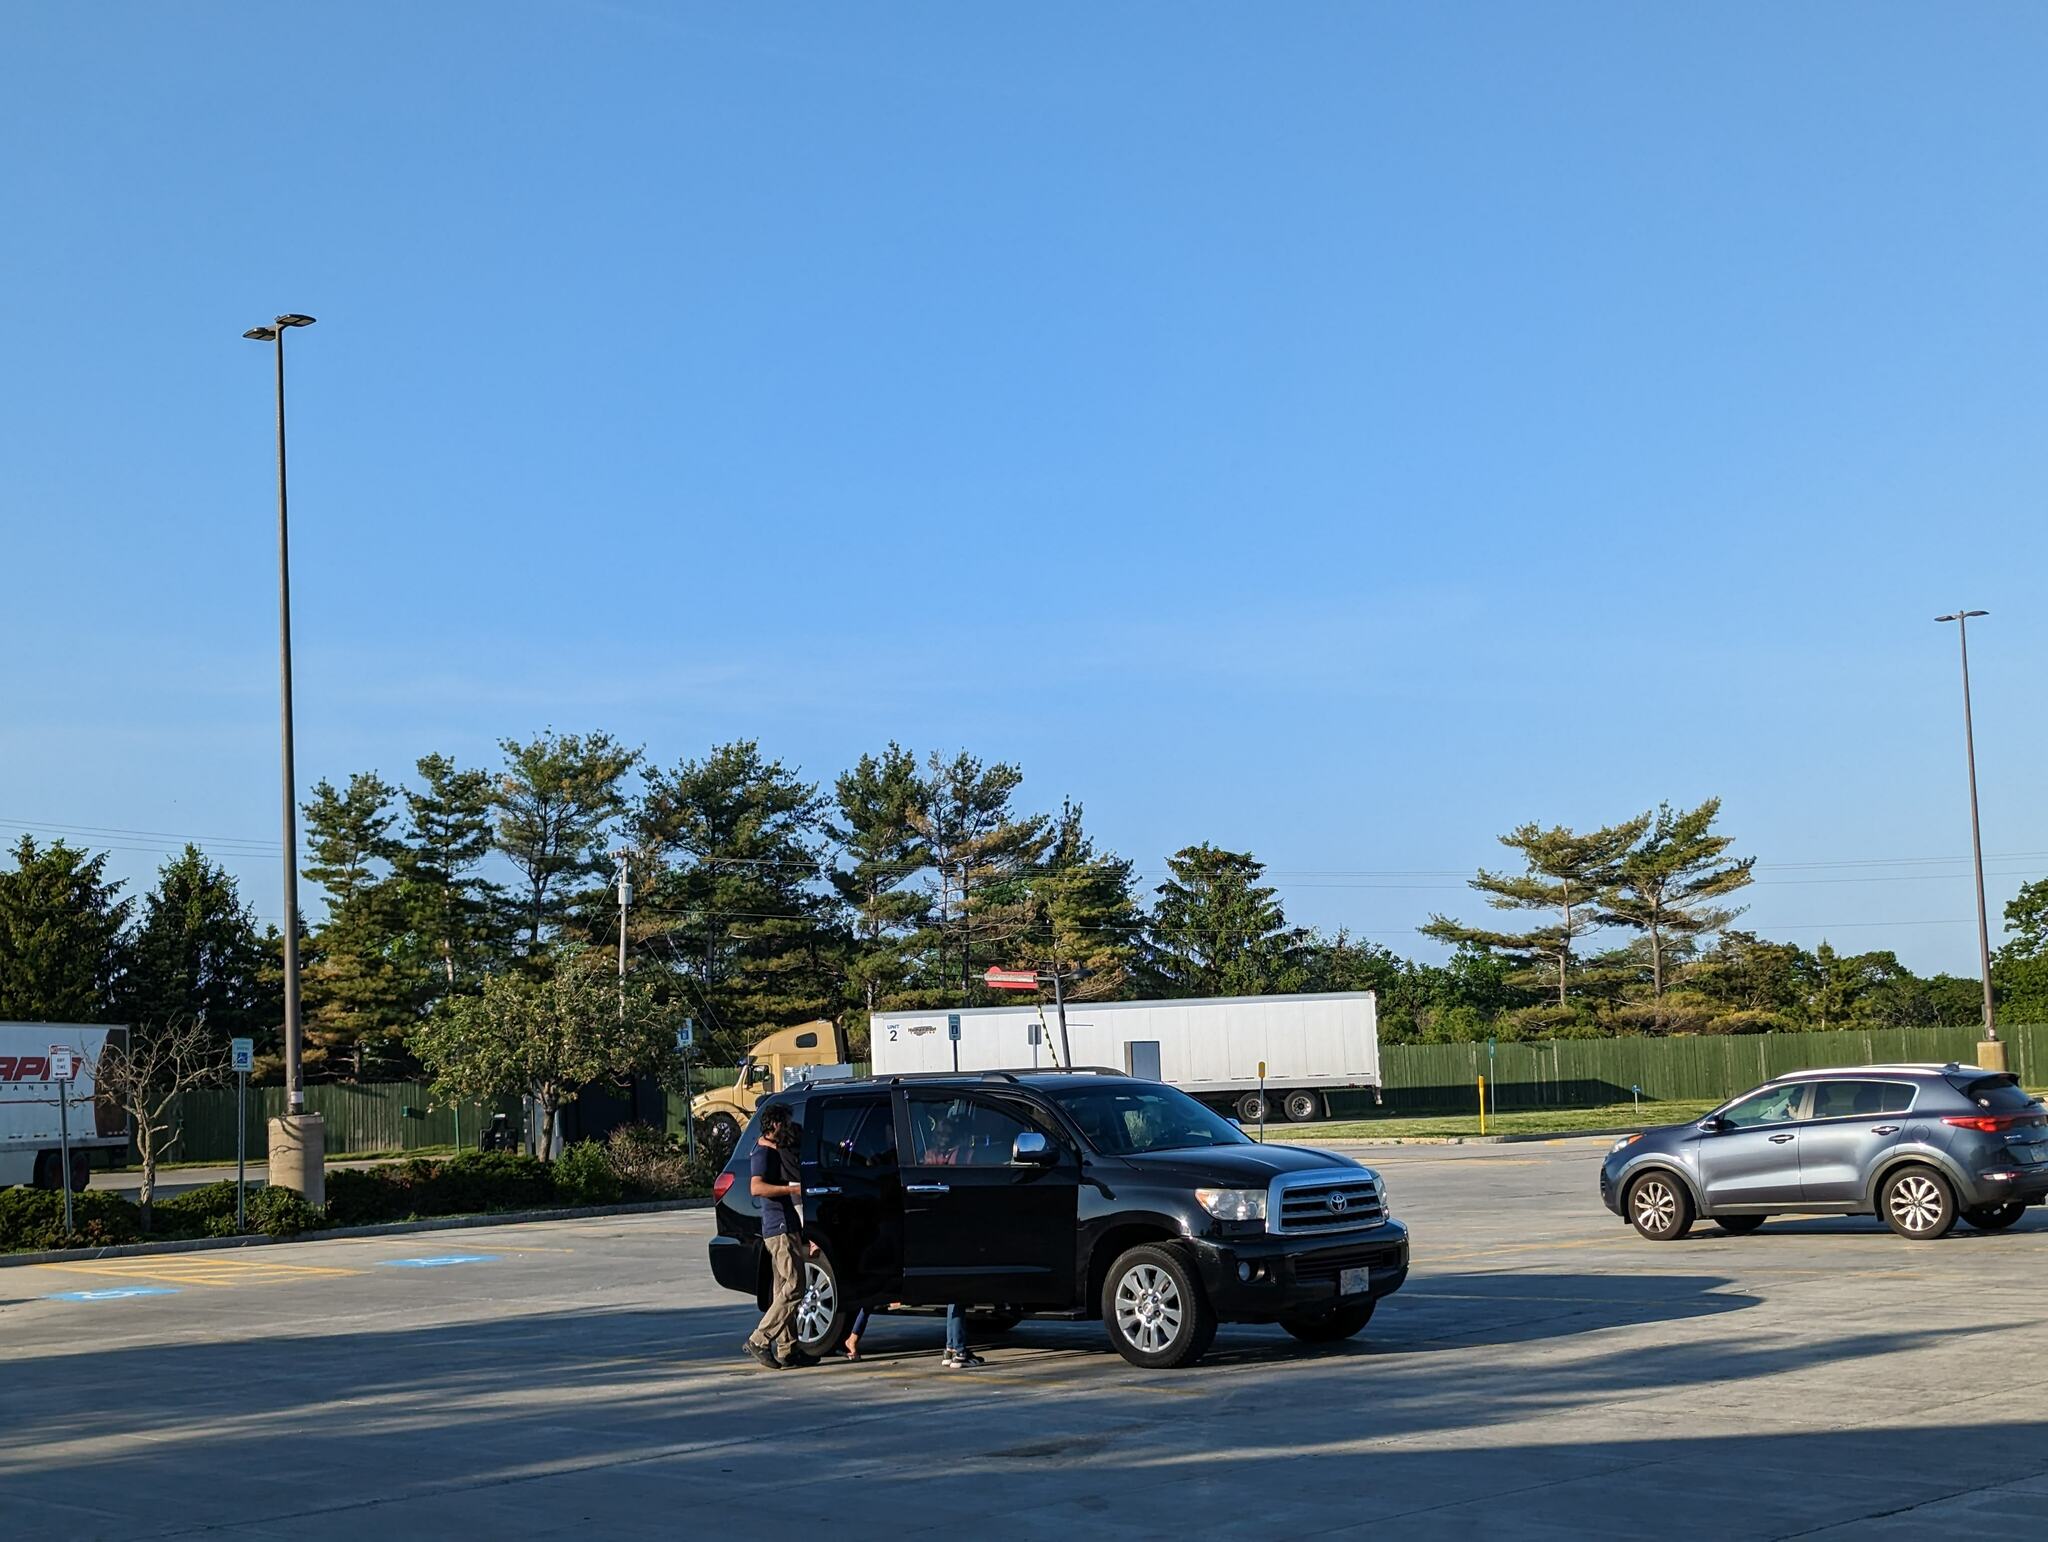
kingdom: Plantae
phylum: Tracheophyta
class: Pinopsida
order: Pinales
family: Pinaceae
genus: Pinus
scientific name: Pinus strobus
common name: Weymouth pine
